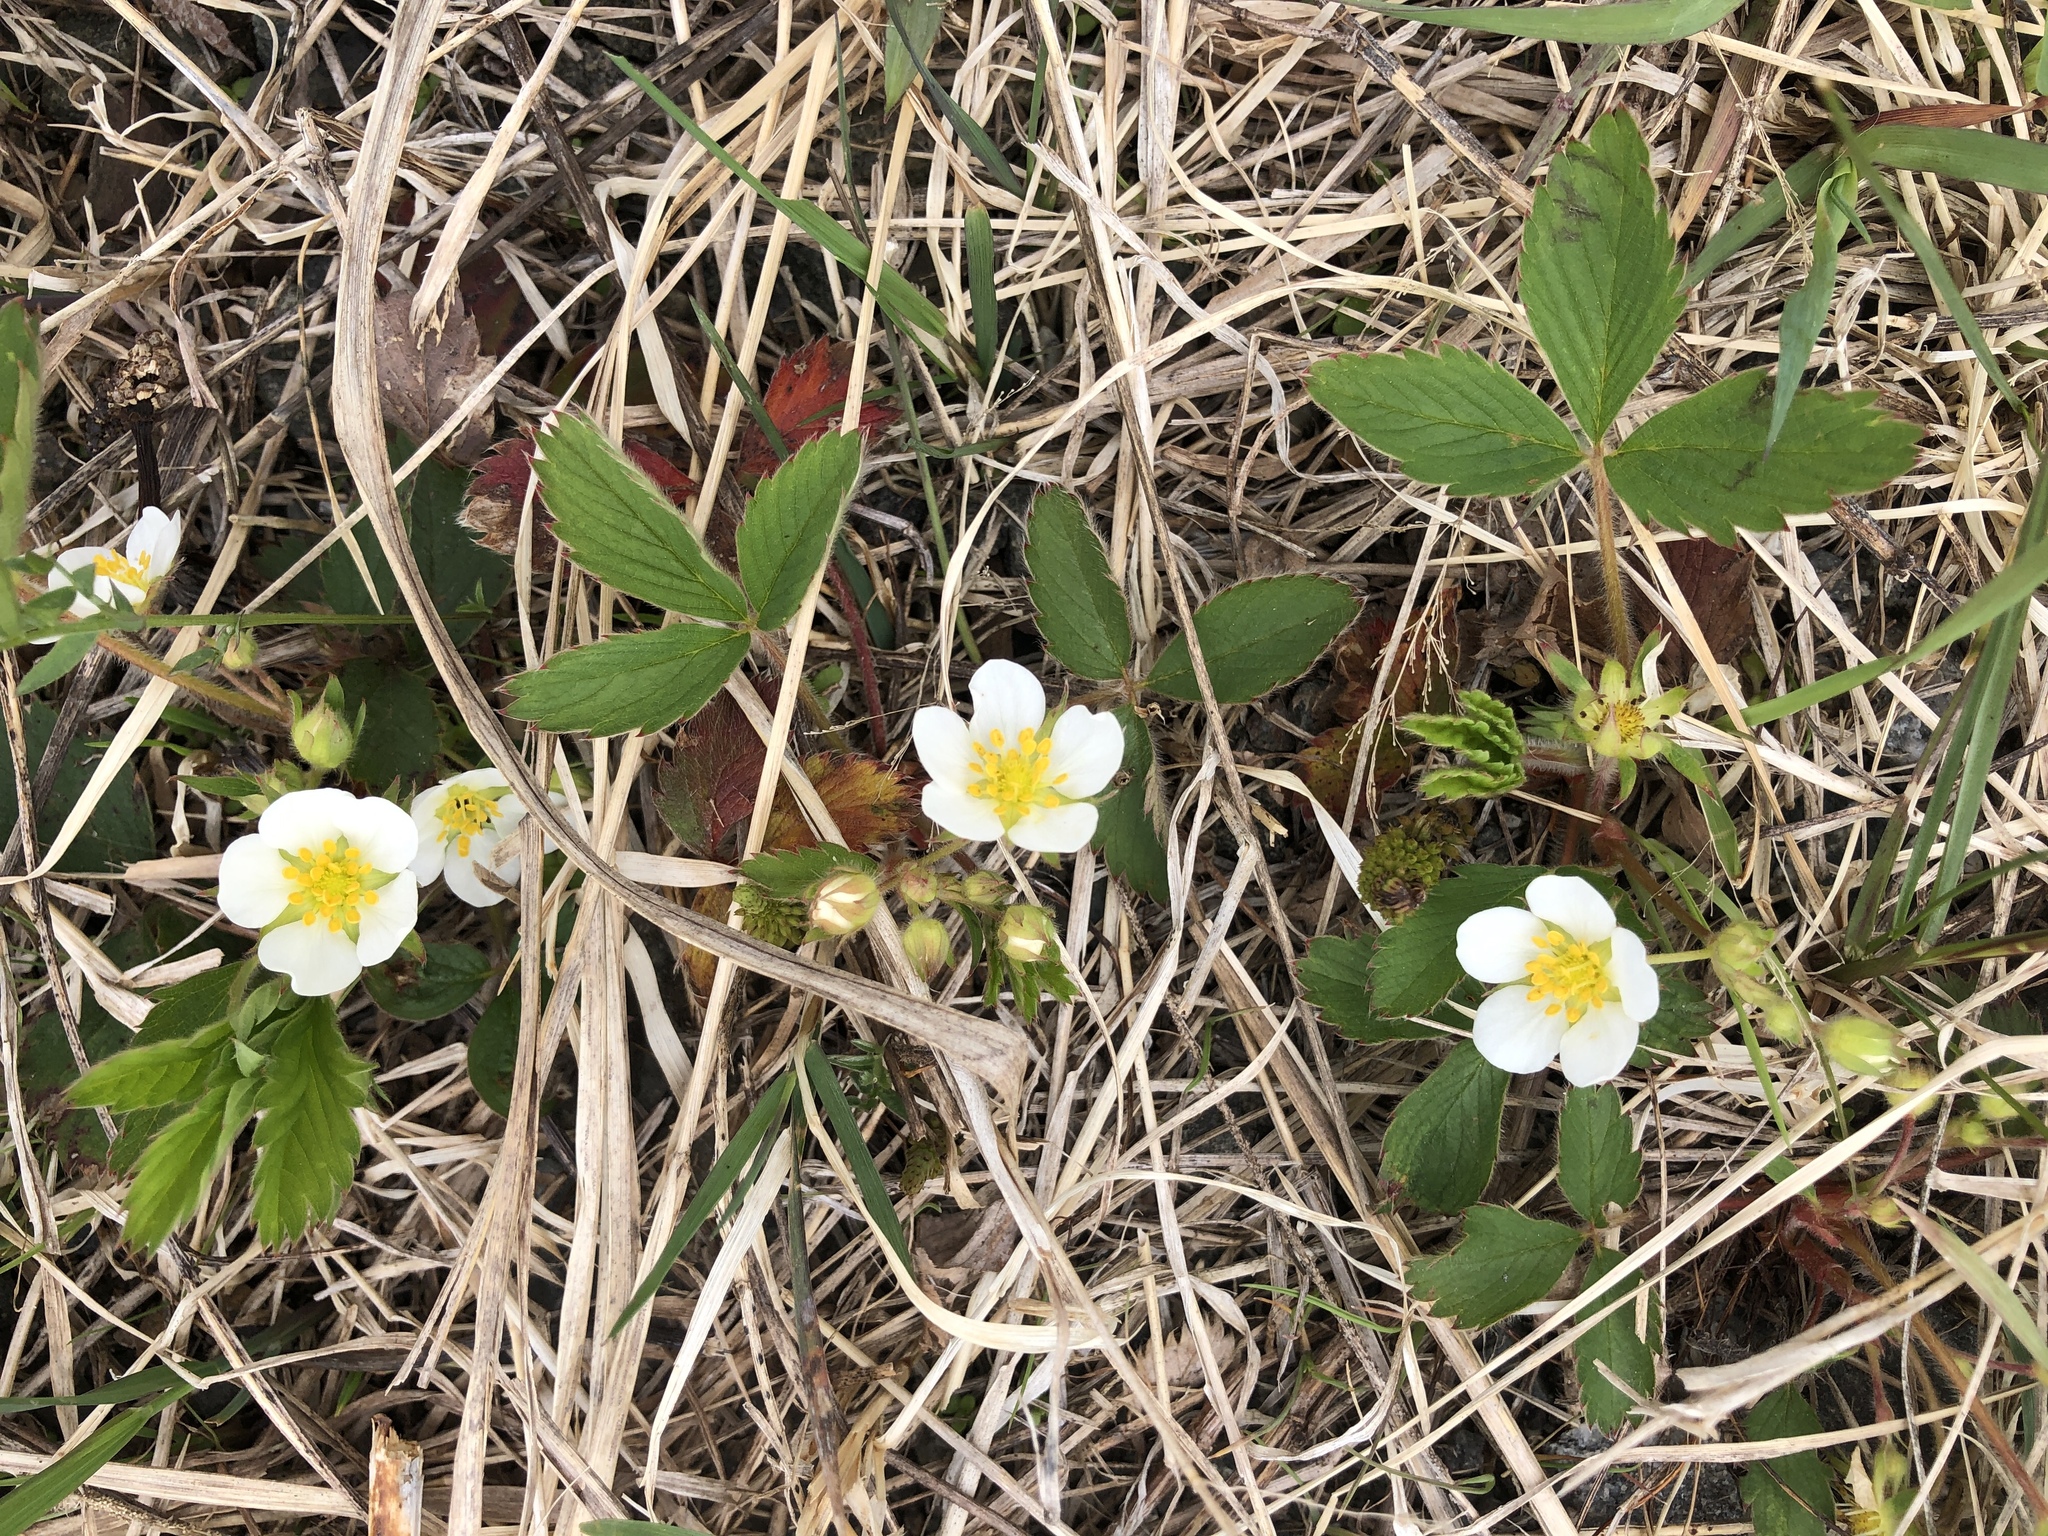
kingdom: Plantae
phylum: Tracheophyta
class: Magnoliopsida
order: Rosales
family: Rosaceae
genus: Fragaria
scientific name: Fragaria virginiana
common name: Thickleaved wild strawberry
